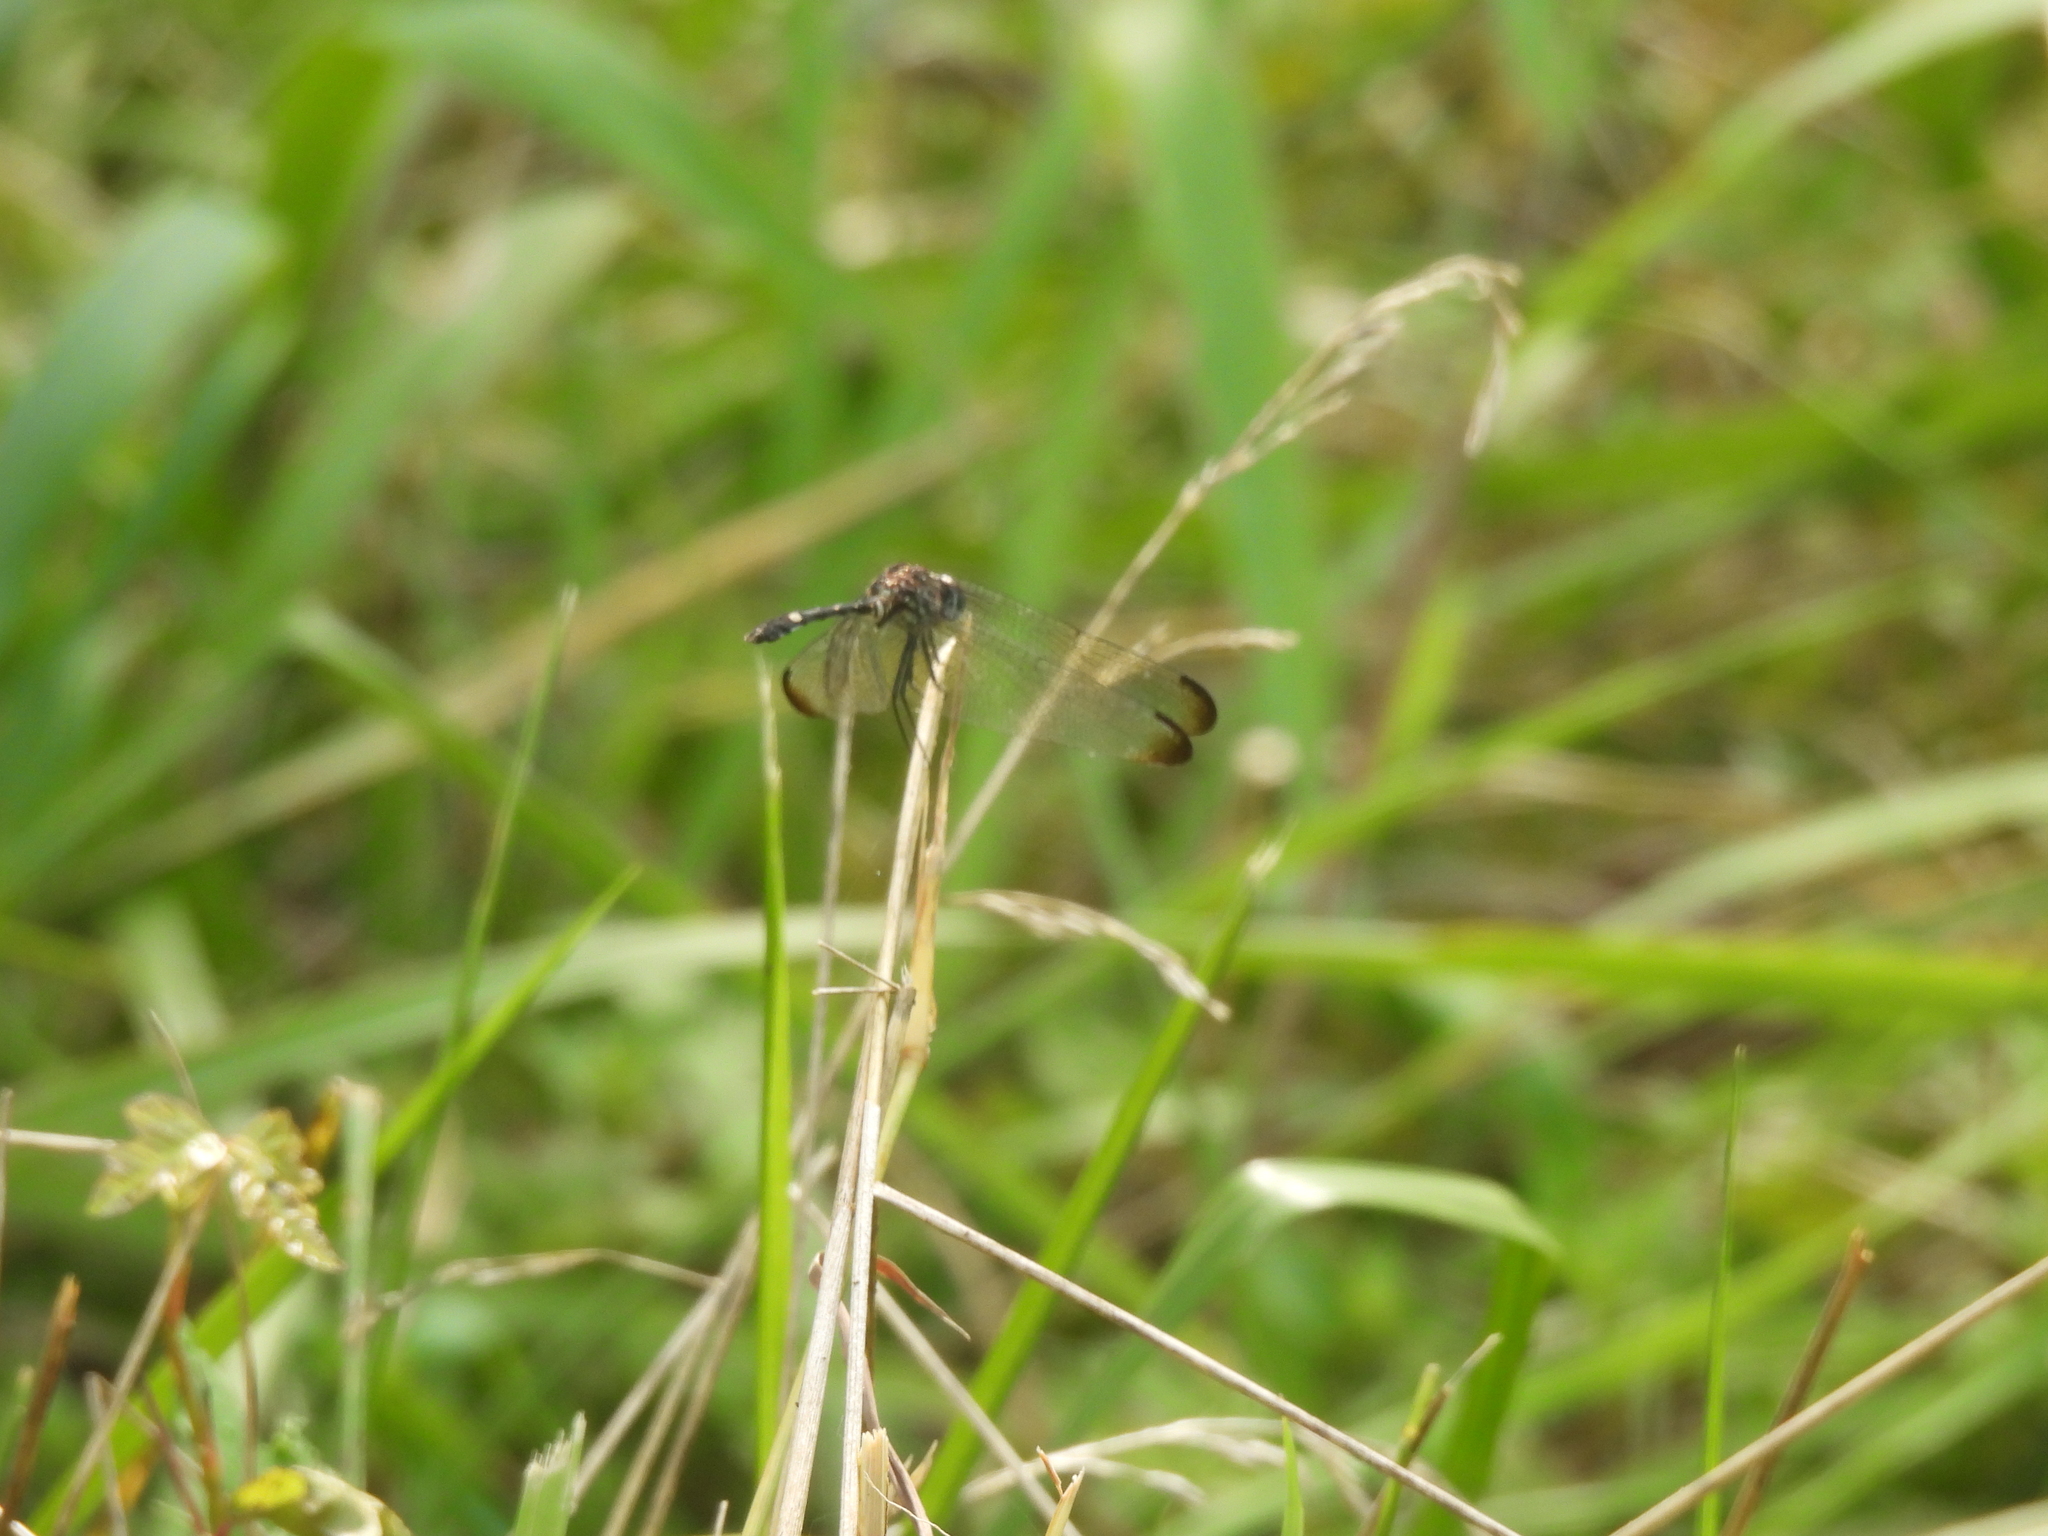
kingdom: Animalia
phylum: Arthropoda
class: Insecta
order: Odonata
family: Libellulidae
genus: Dythemis
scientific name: Dythemis velox
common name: Swift setwing
